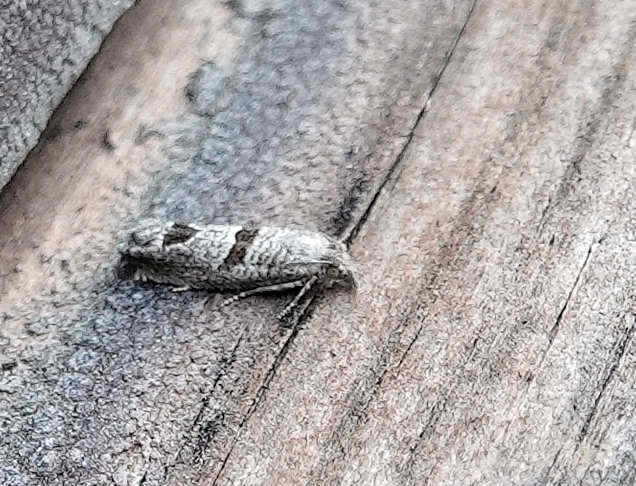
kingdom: Animalia
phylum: Arthropoda
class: Insecta
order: Lepidoptera
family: Tortricidae
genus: Suleima
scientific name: Suleima helianthana
